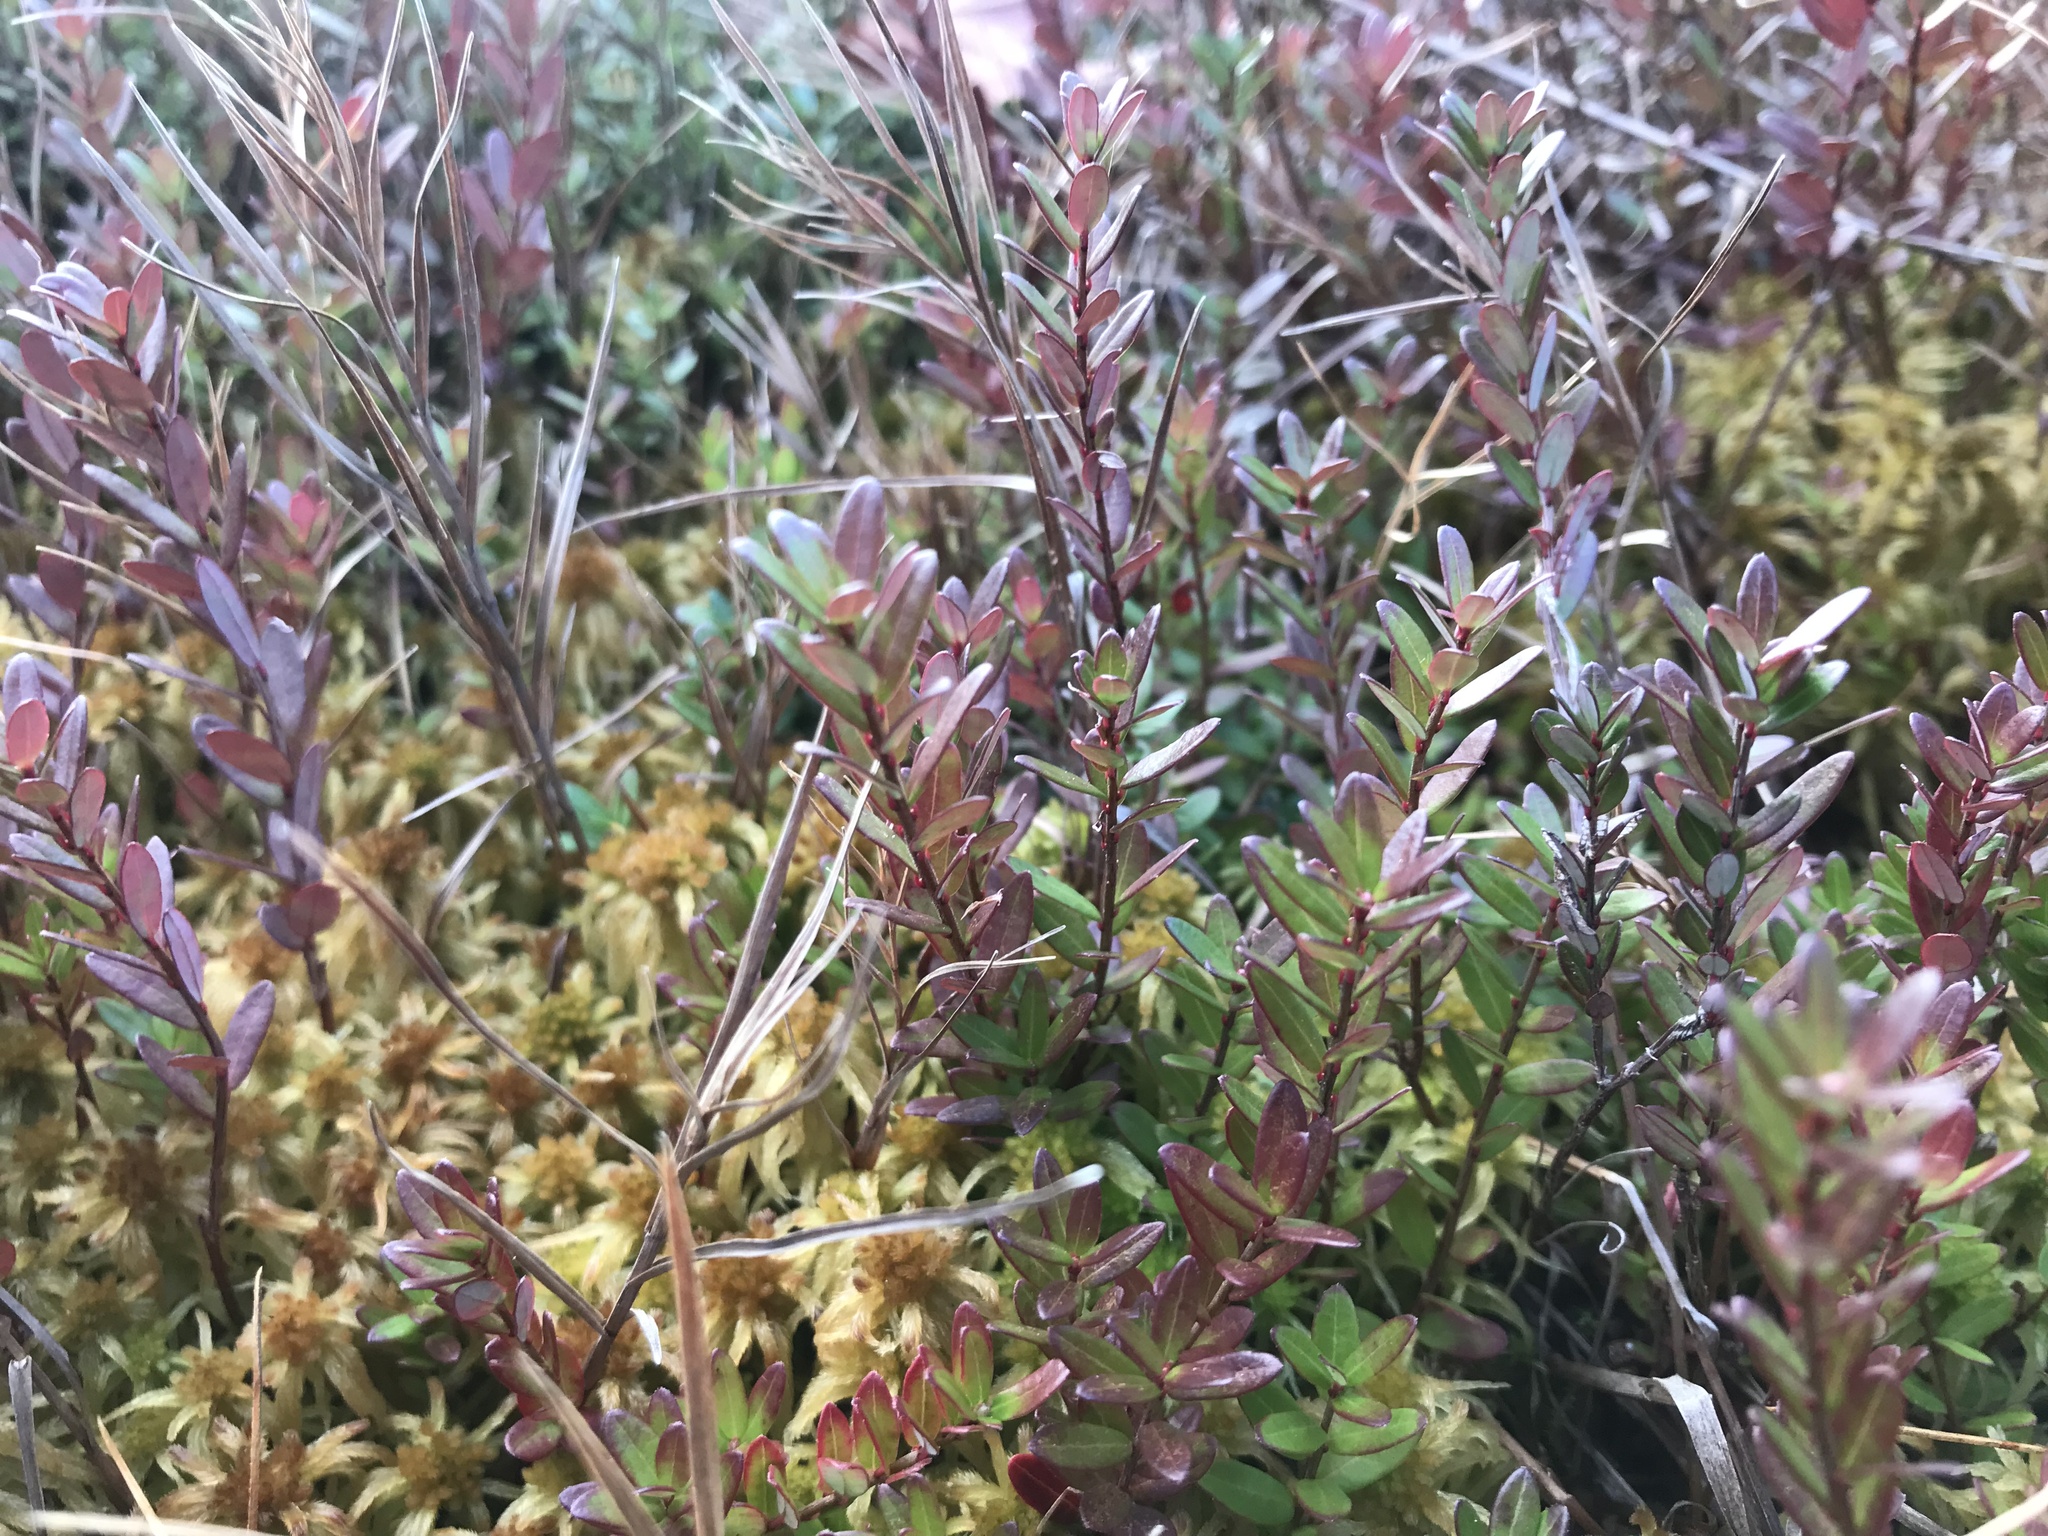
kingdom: Plantae
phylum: Tracheophyta
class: Magnoliopsida
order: Ericales
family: Ericaceae
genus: Vaccinium
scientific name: Vaccinium macrocarpon
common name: American cranberry
